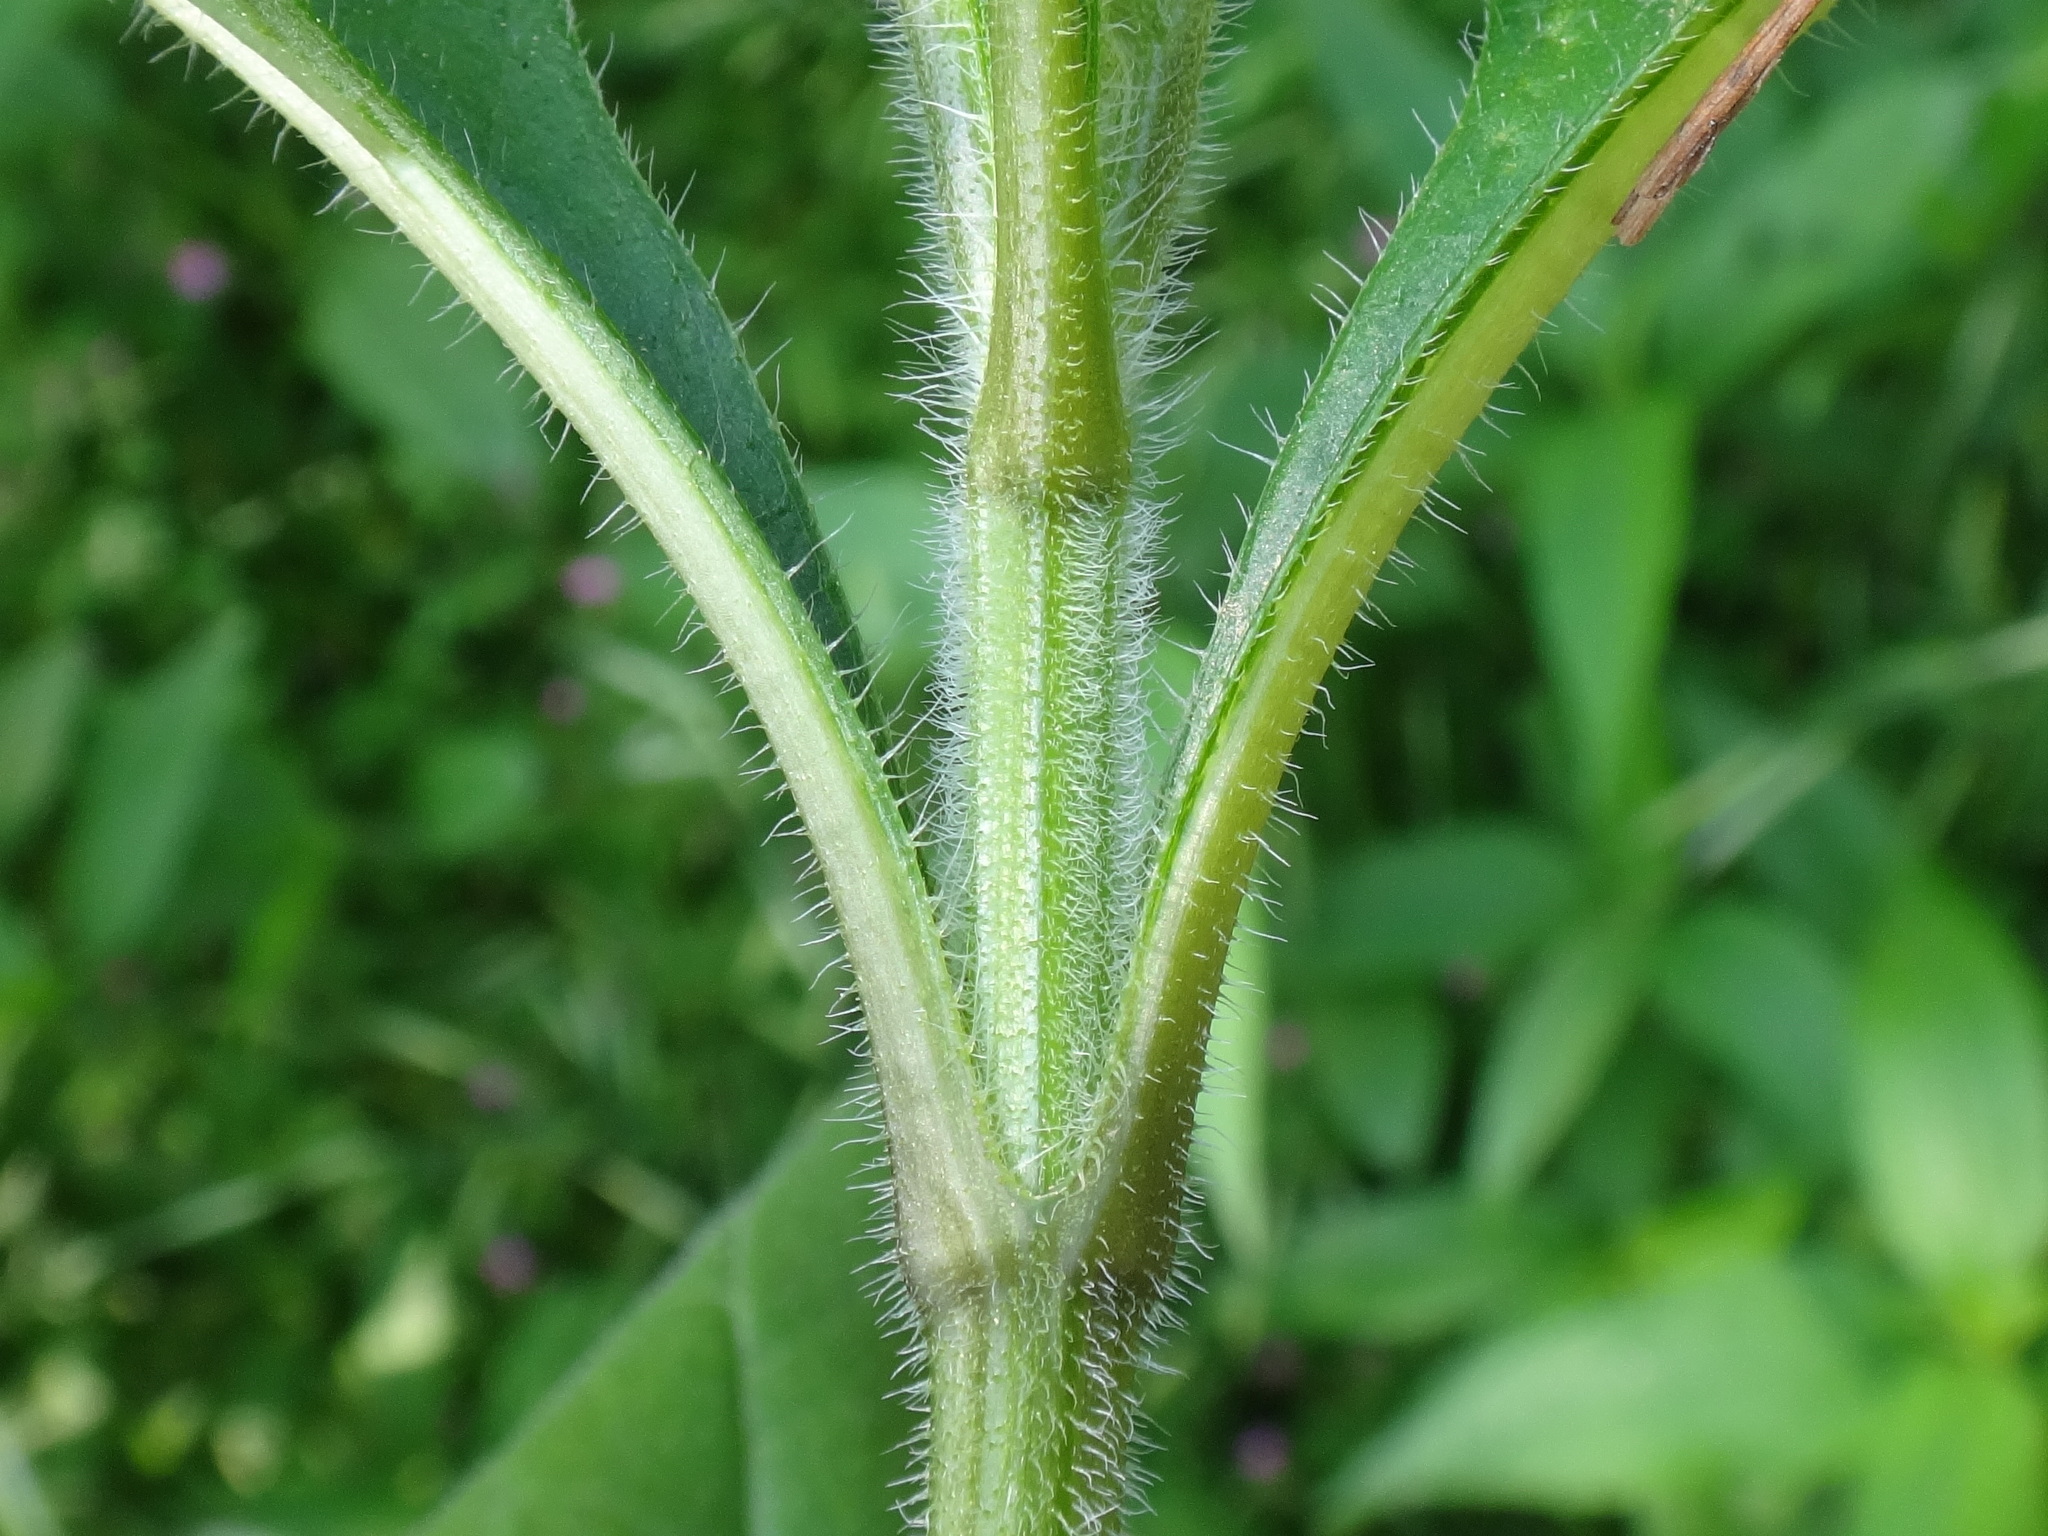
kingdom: Plantae
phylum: Tracheophyta
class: Magnoliopsida
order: Asterales
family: Asteraceae
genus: Helianthus
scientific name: Helianthus tuberosus
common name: Jerusalem artichoke
